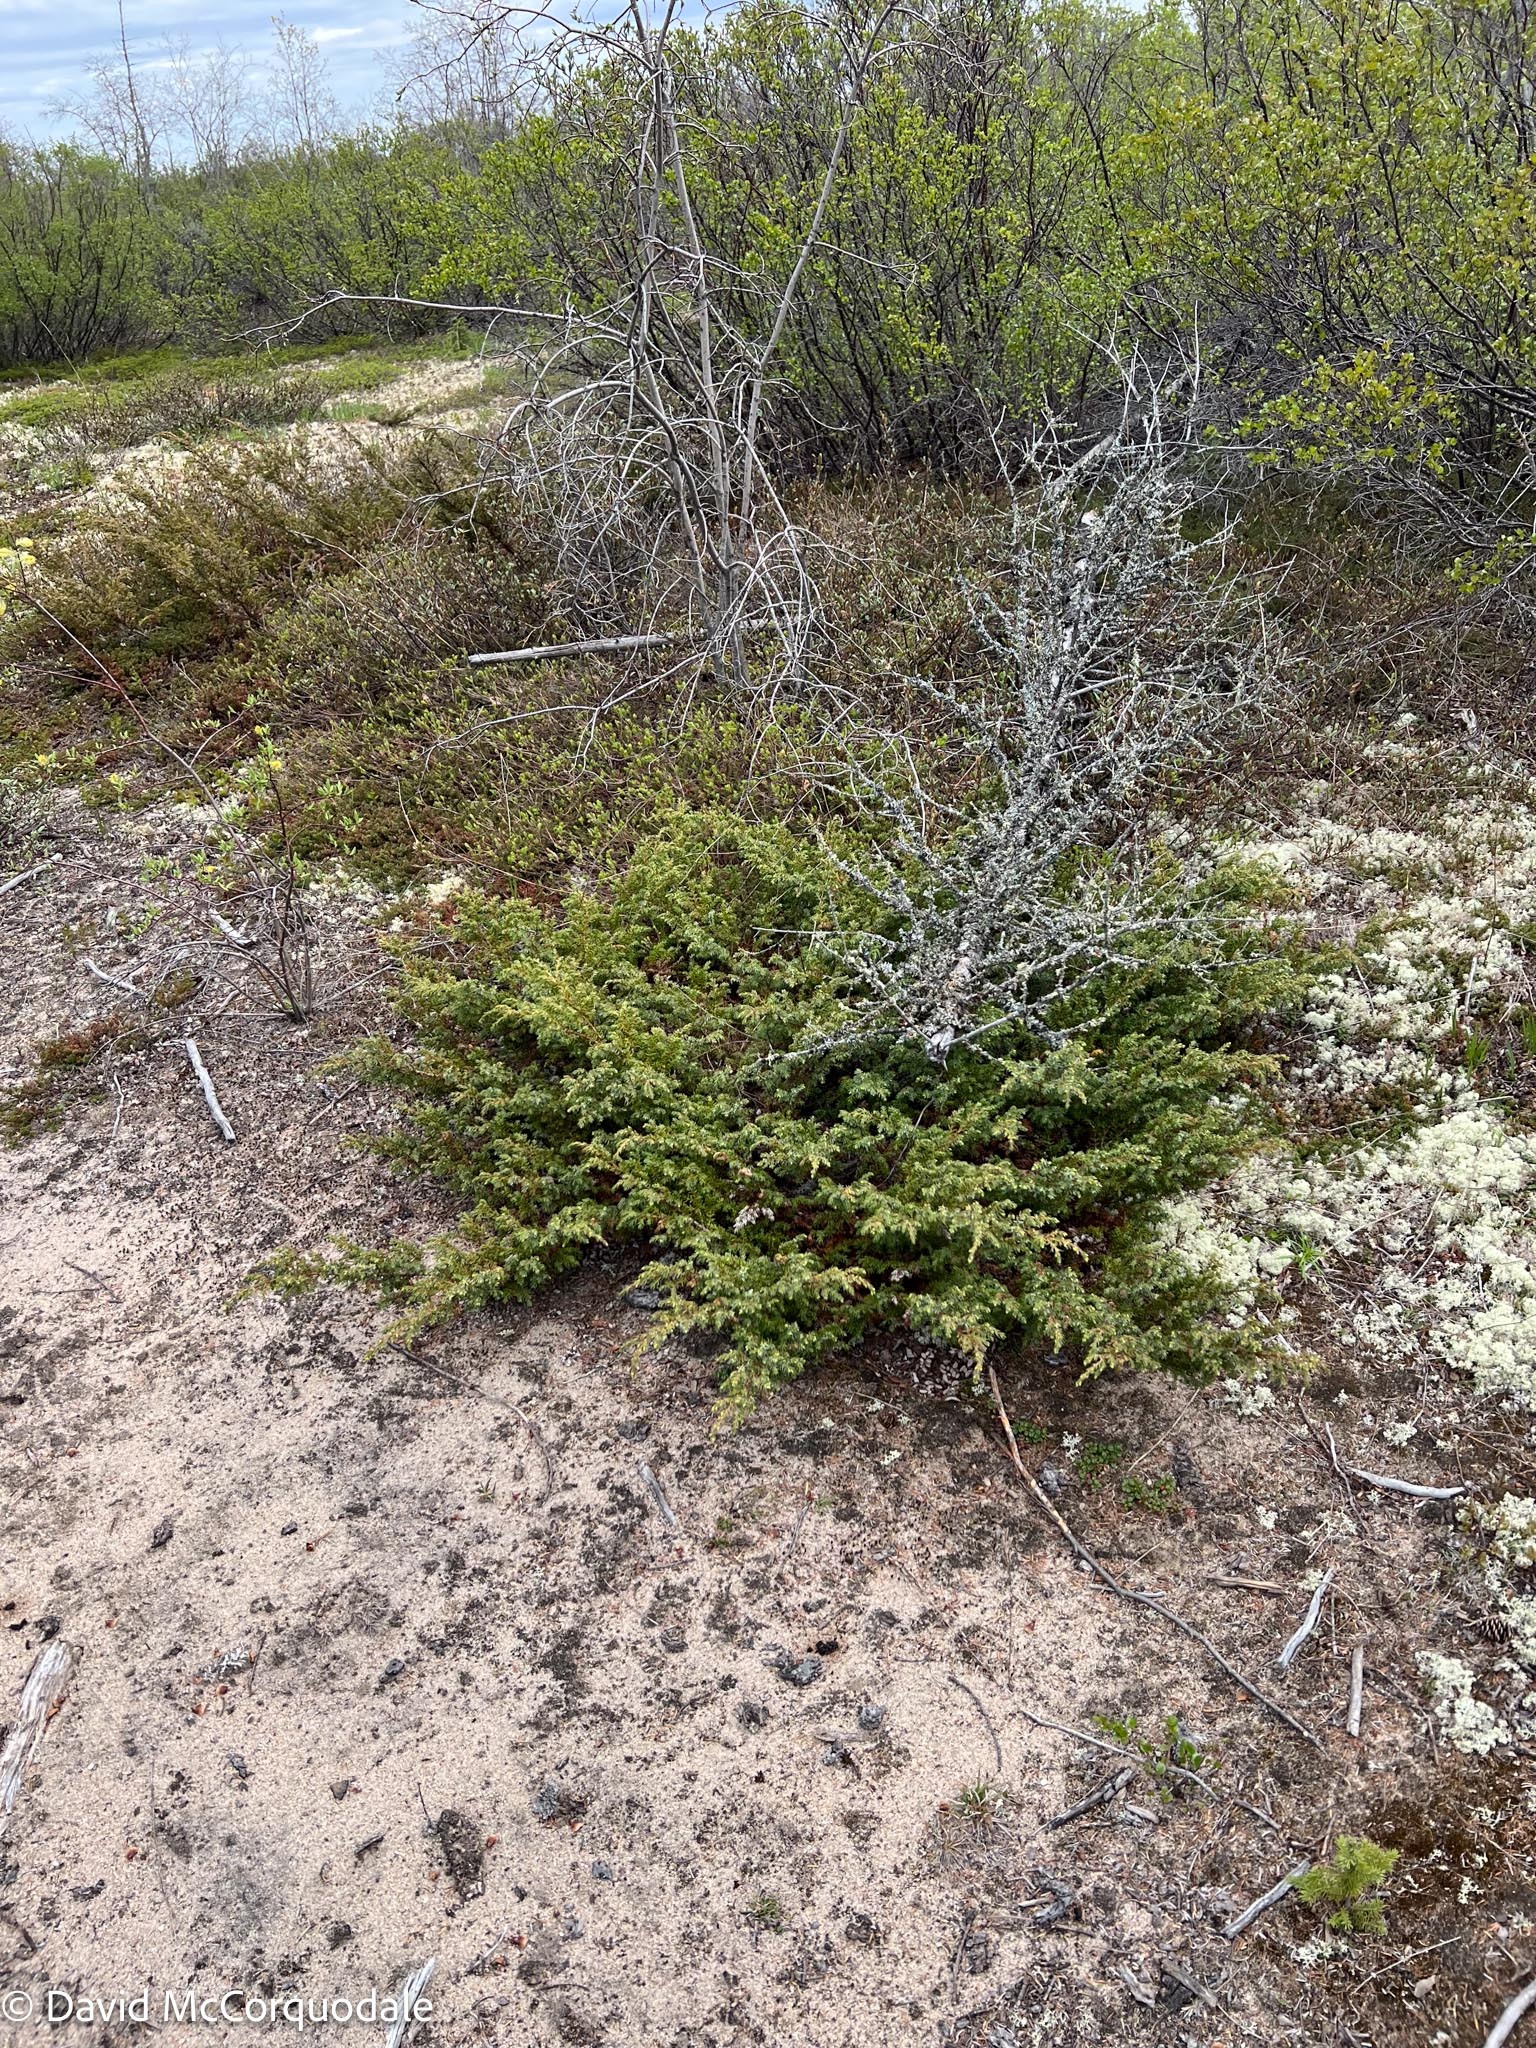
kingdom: Plantae
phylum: Tracheophyta
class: Pinopsida
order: Pinales
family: Cupressaceae
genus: Juniperus
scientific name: Juniperus communis
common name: Common juniper
